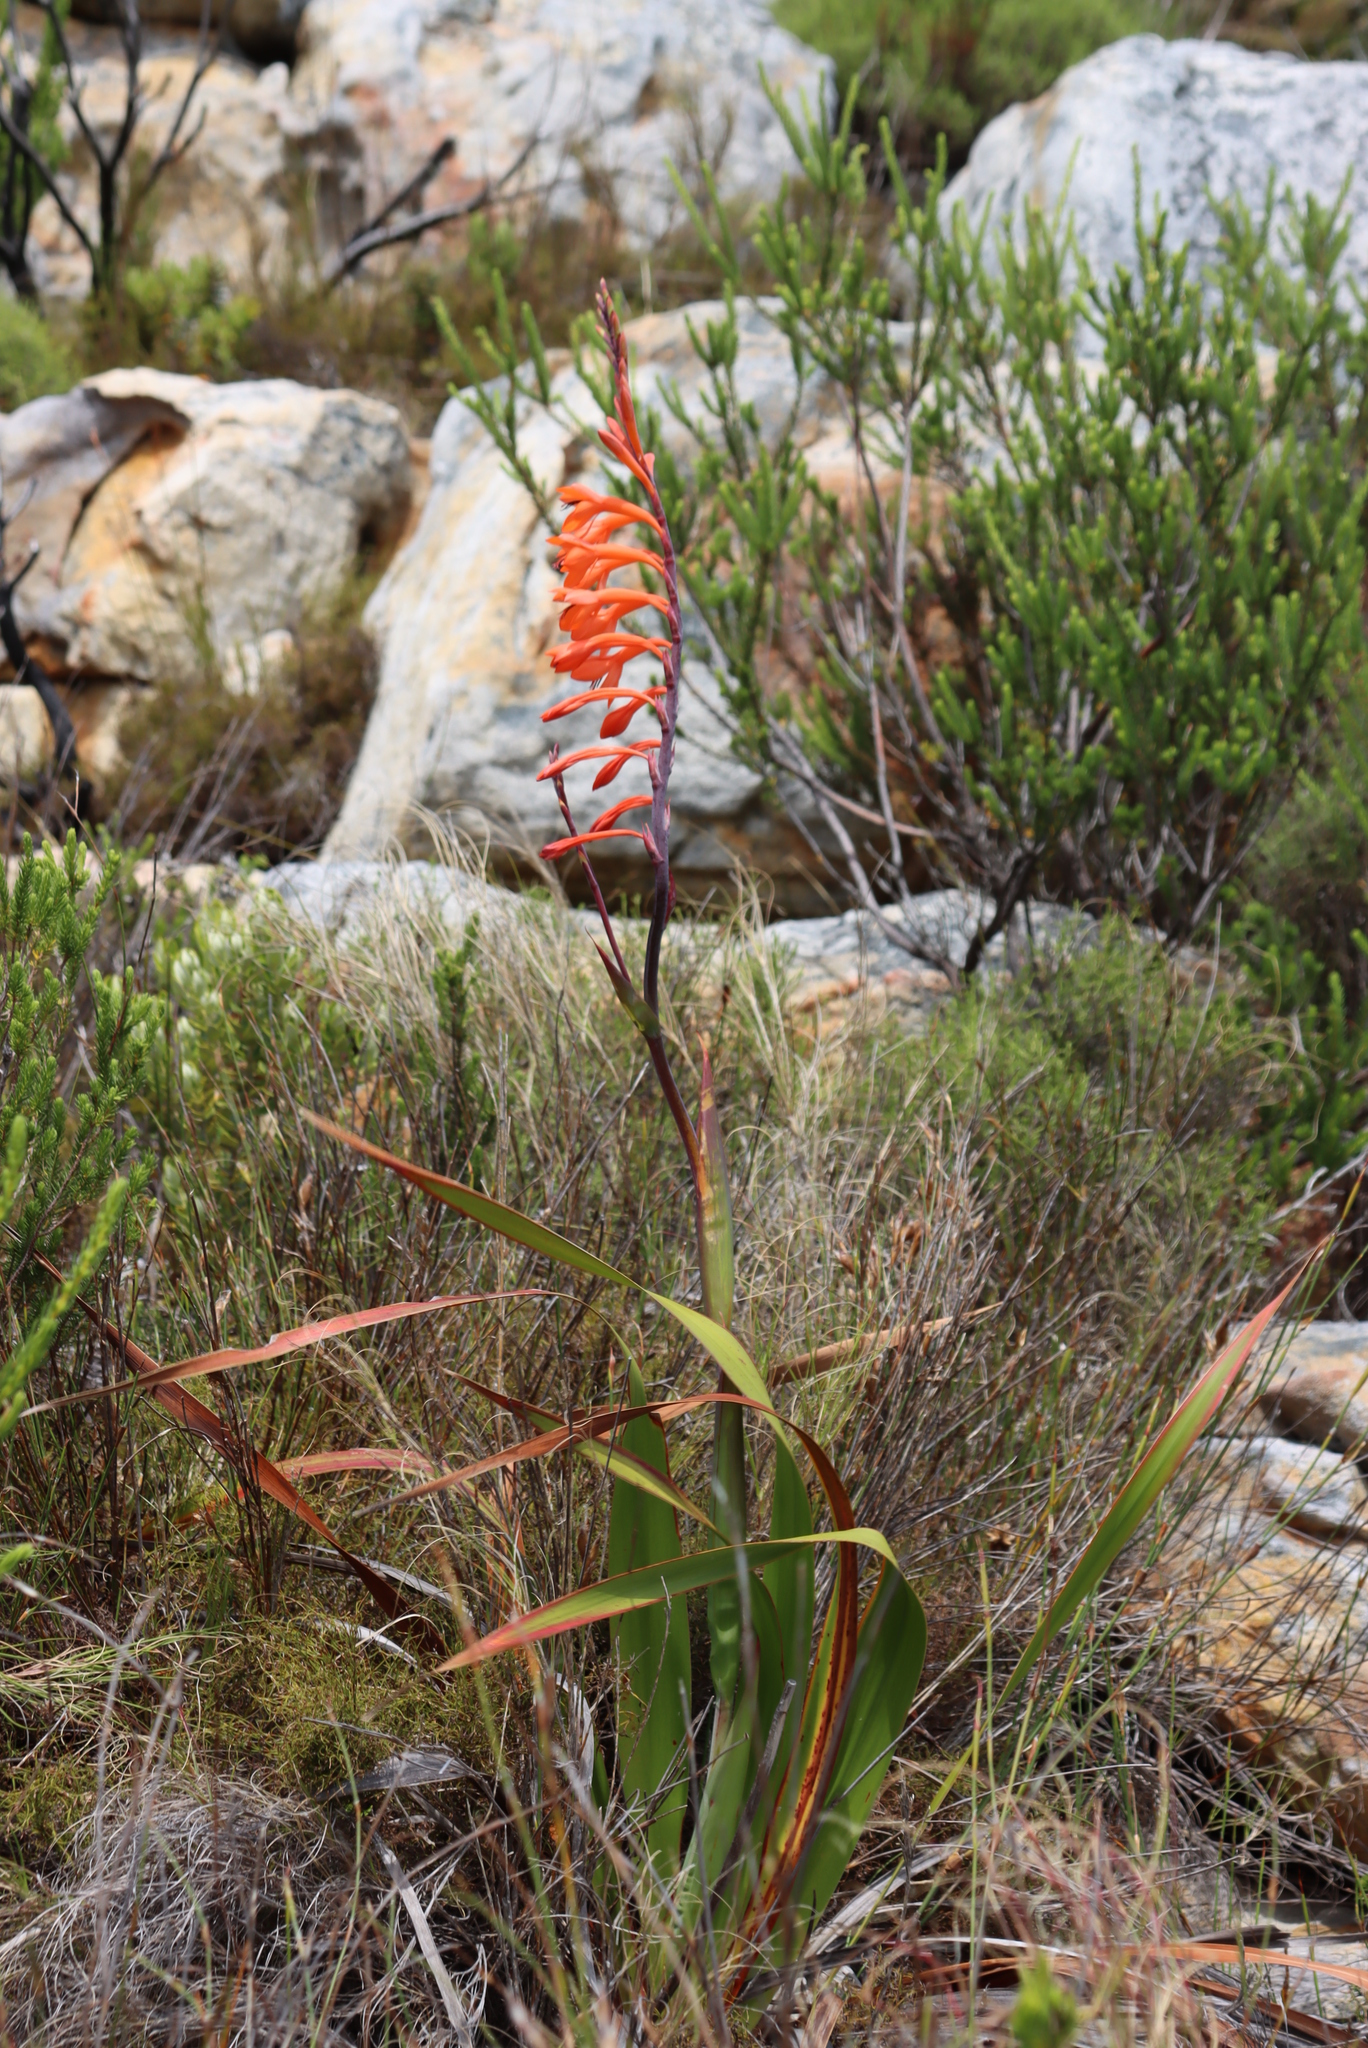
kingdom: Plantae
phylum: Tracheophyta
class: Liliopsida
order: Asparagales
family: Iridaceae
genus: Watsonia
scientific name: Watsonia tabularis
